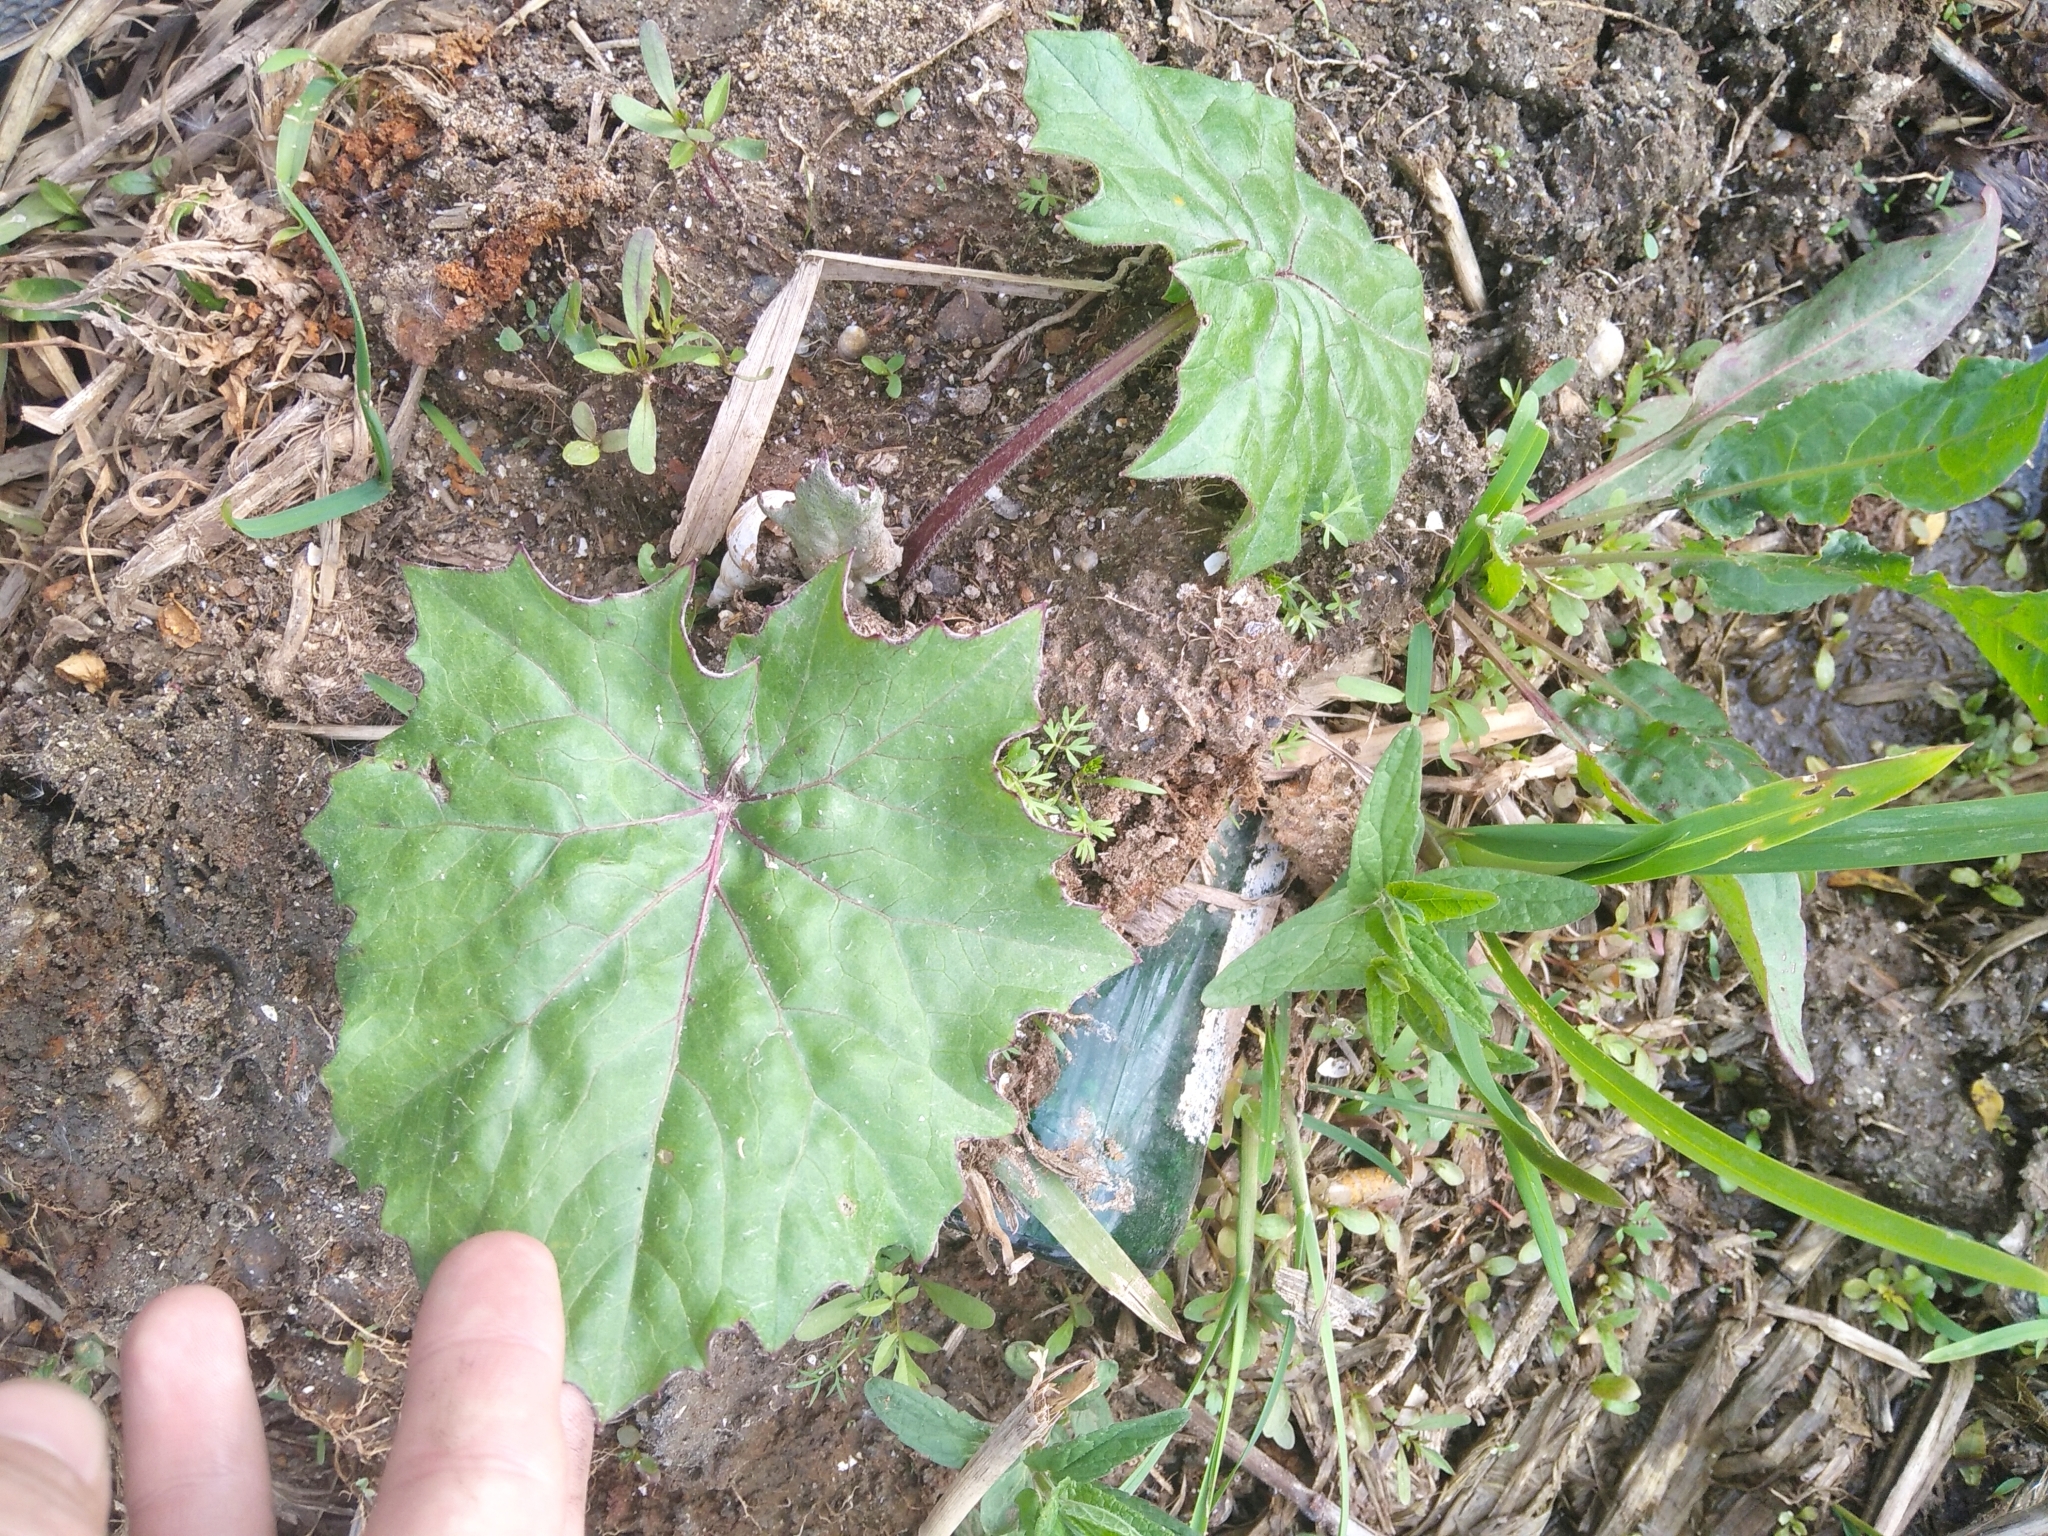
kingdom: Plantae
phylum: Tracheophyta
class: Magnoliopsida
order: Asterales
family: Asteraceae
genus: Tussilago
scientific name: Tussilago farfara
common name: Coltsfoot
